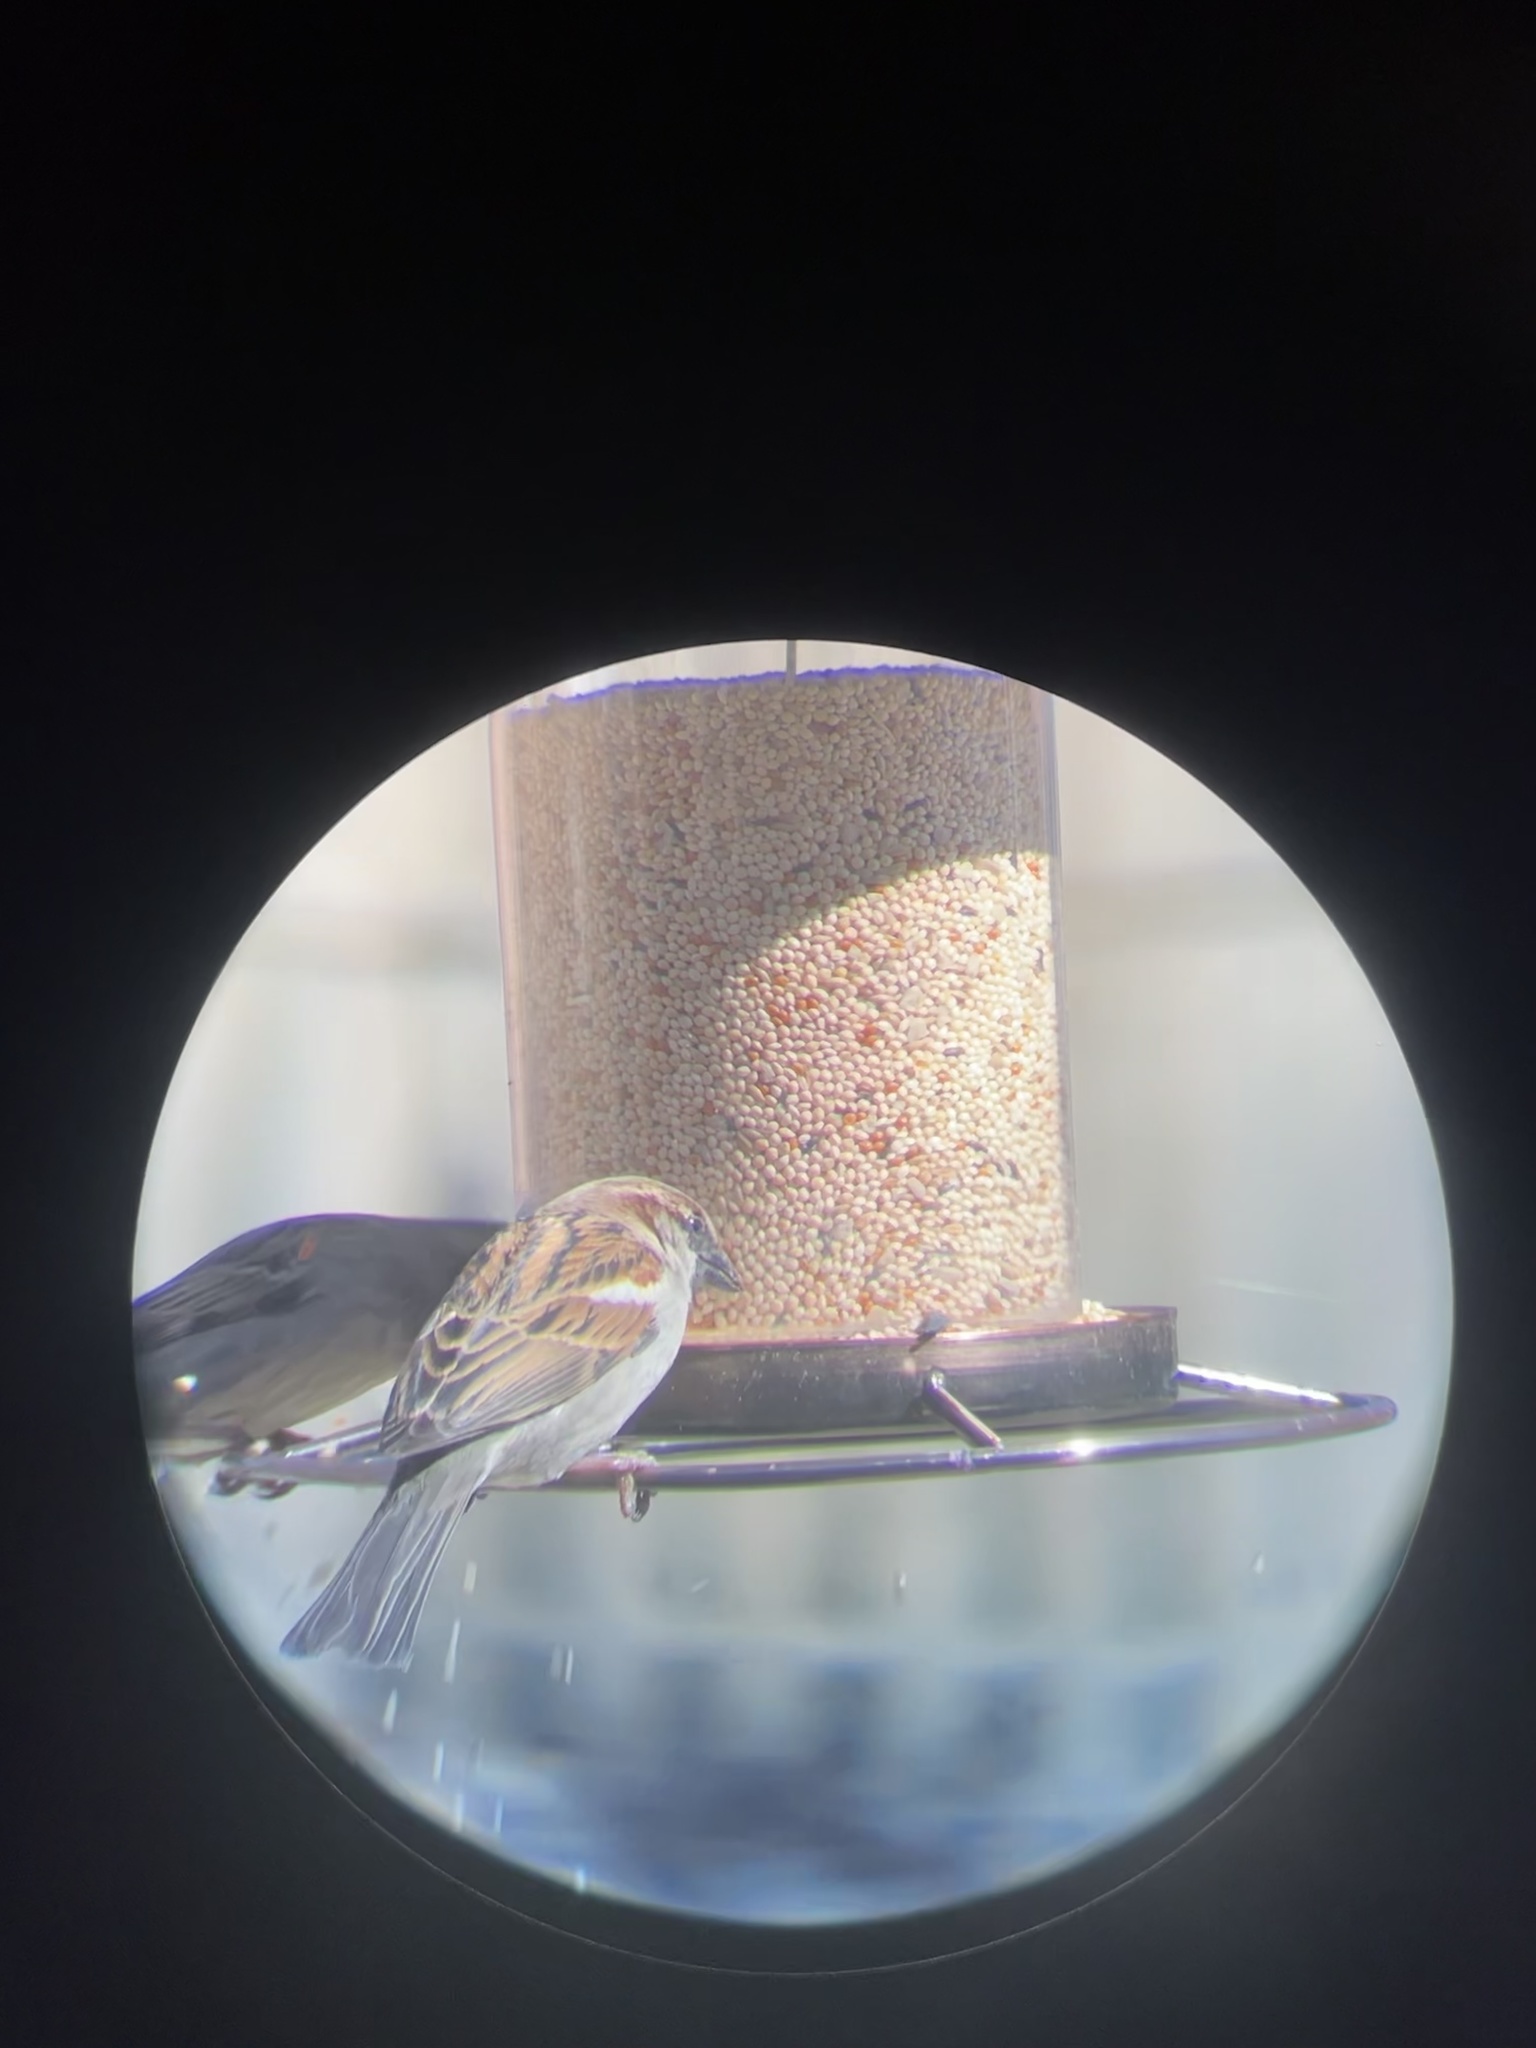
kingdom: Animalia
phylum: Chordata
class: Aves
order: Passeriformes
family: Passeridae
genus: Passer
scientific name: Passer domesticus
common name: House sparrow
